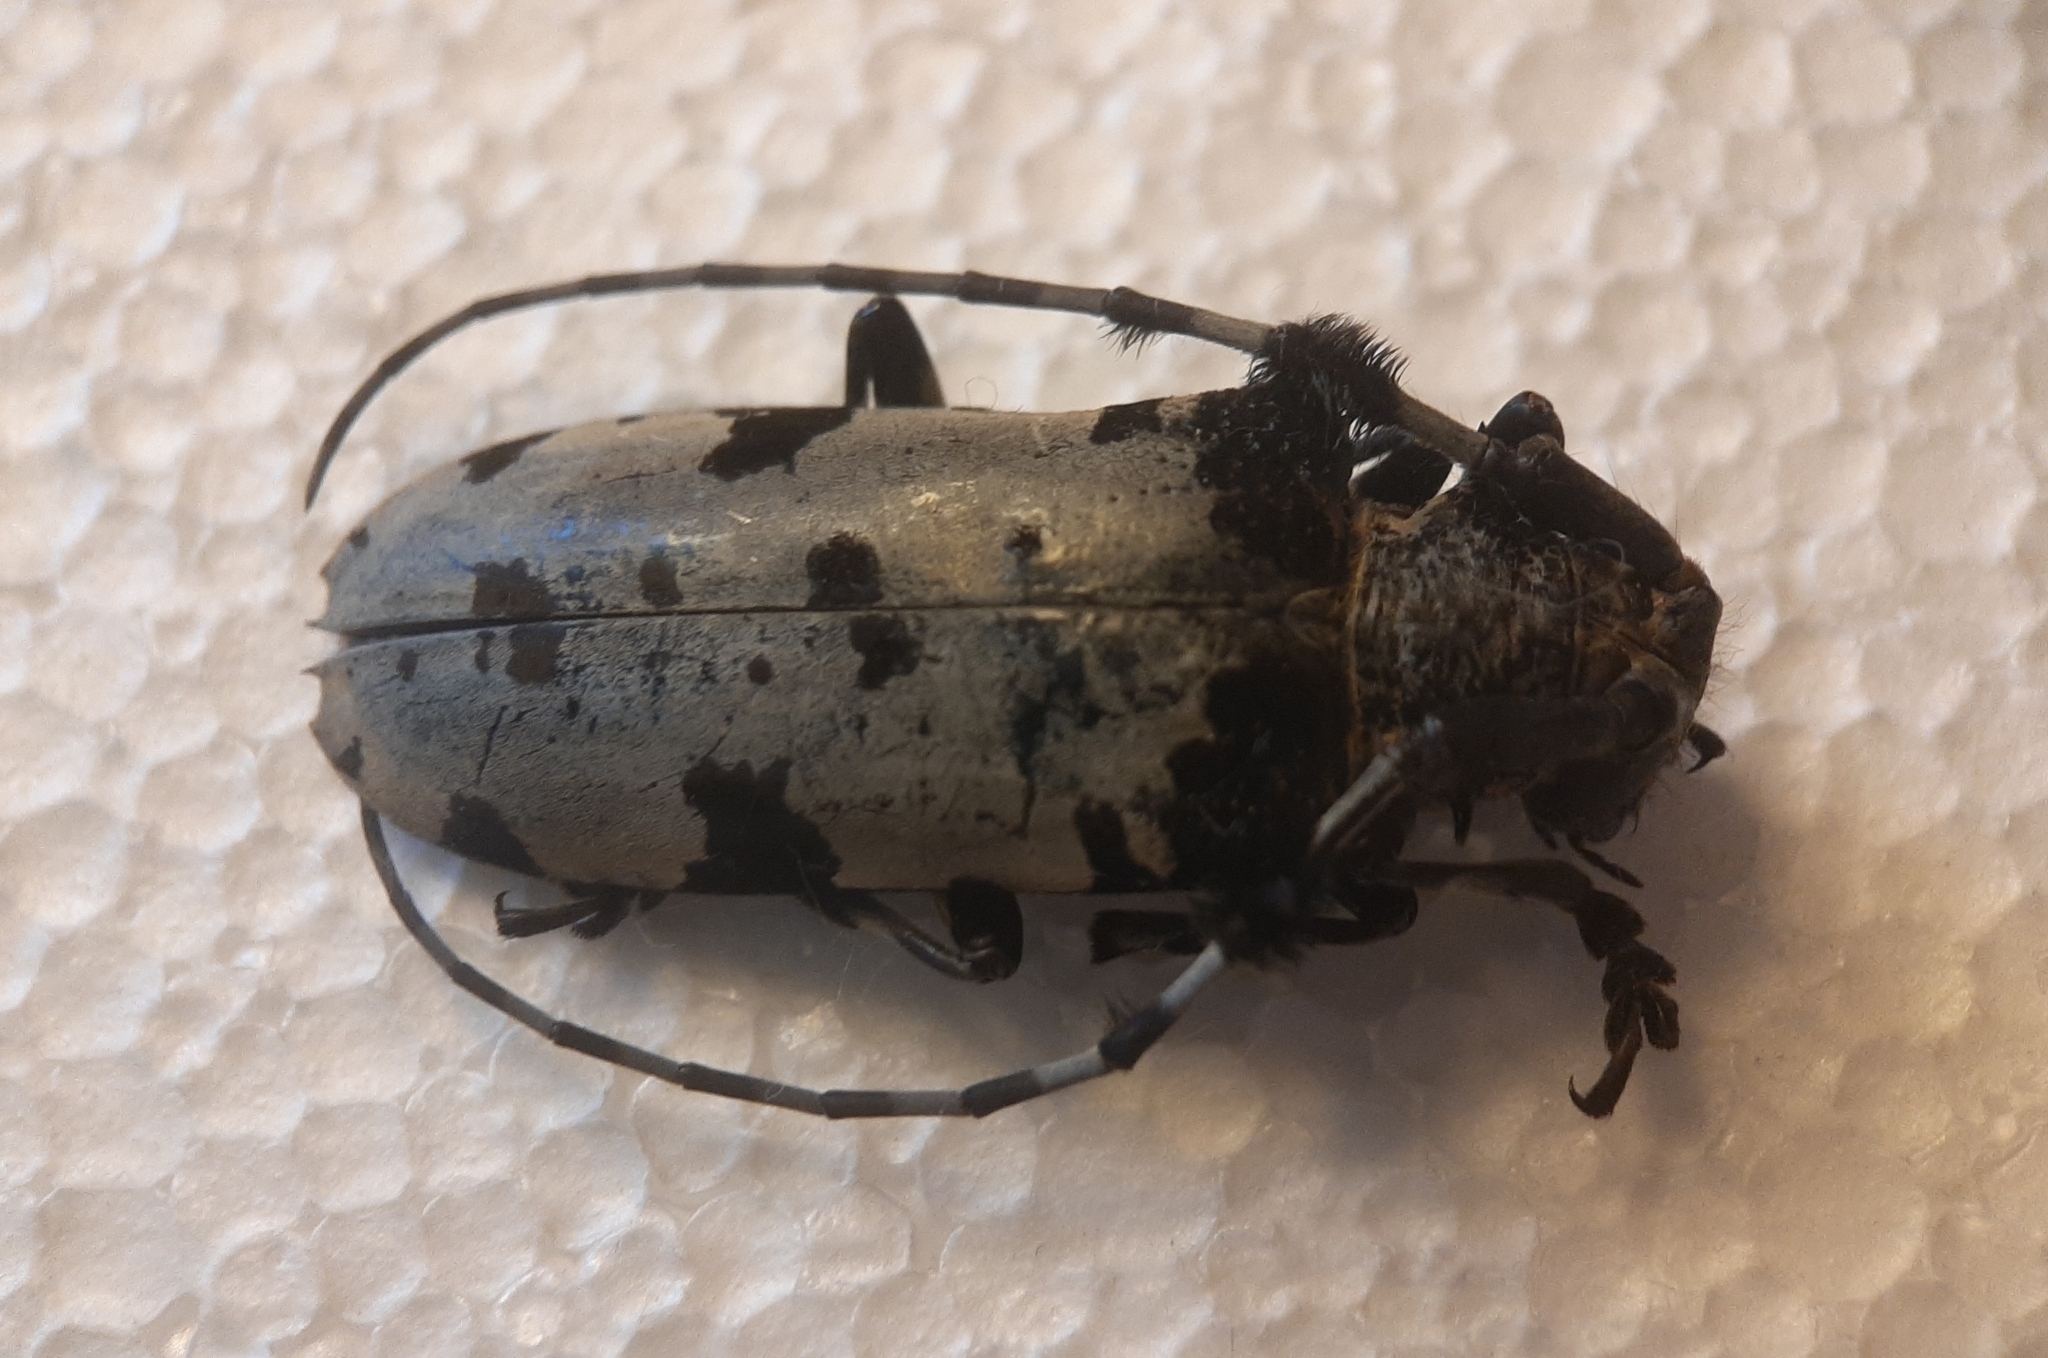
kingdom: Animalia
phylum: Arthropoda
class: Insecta
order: Coleoptera
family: Cerambycidae
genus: Aristobia
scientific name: Aristobia voetii
